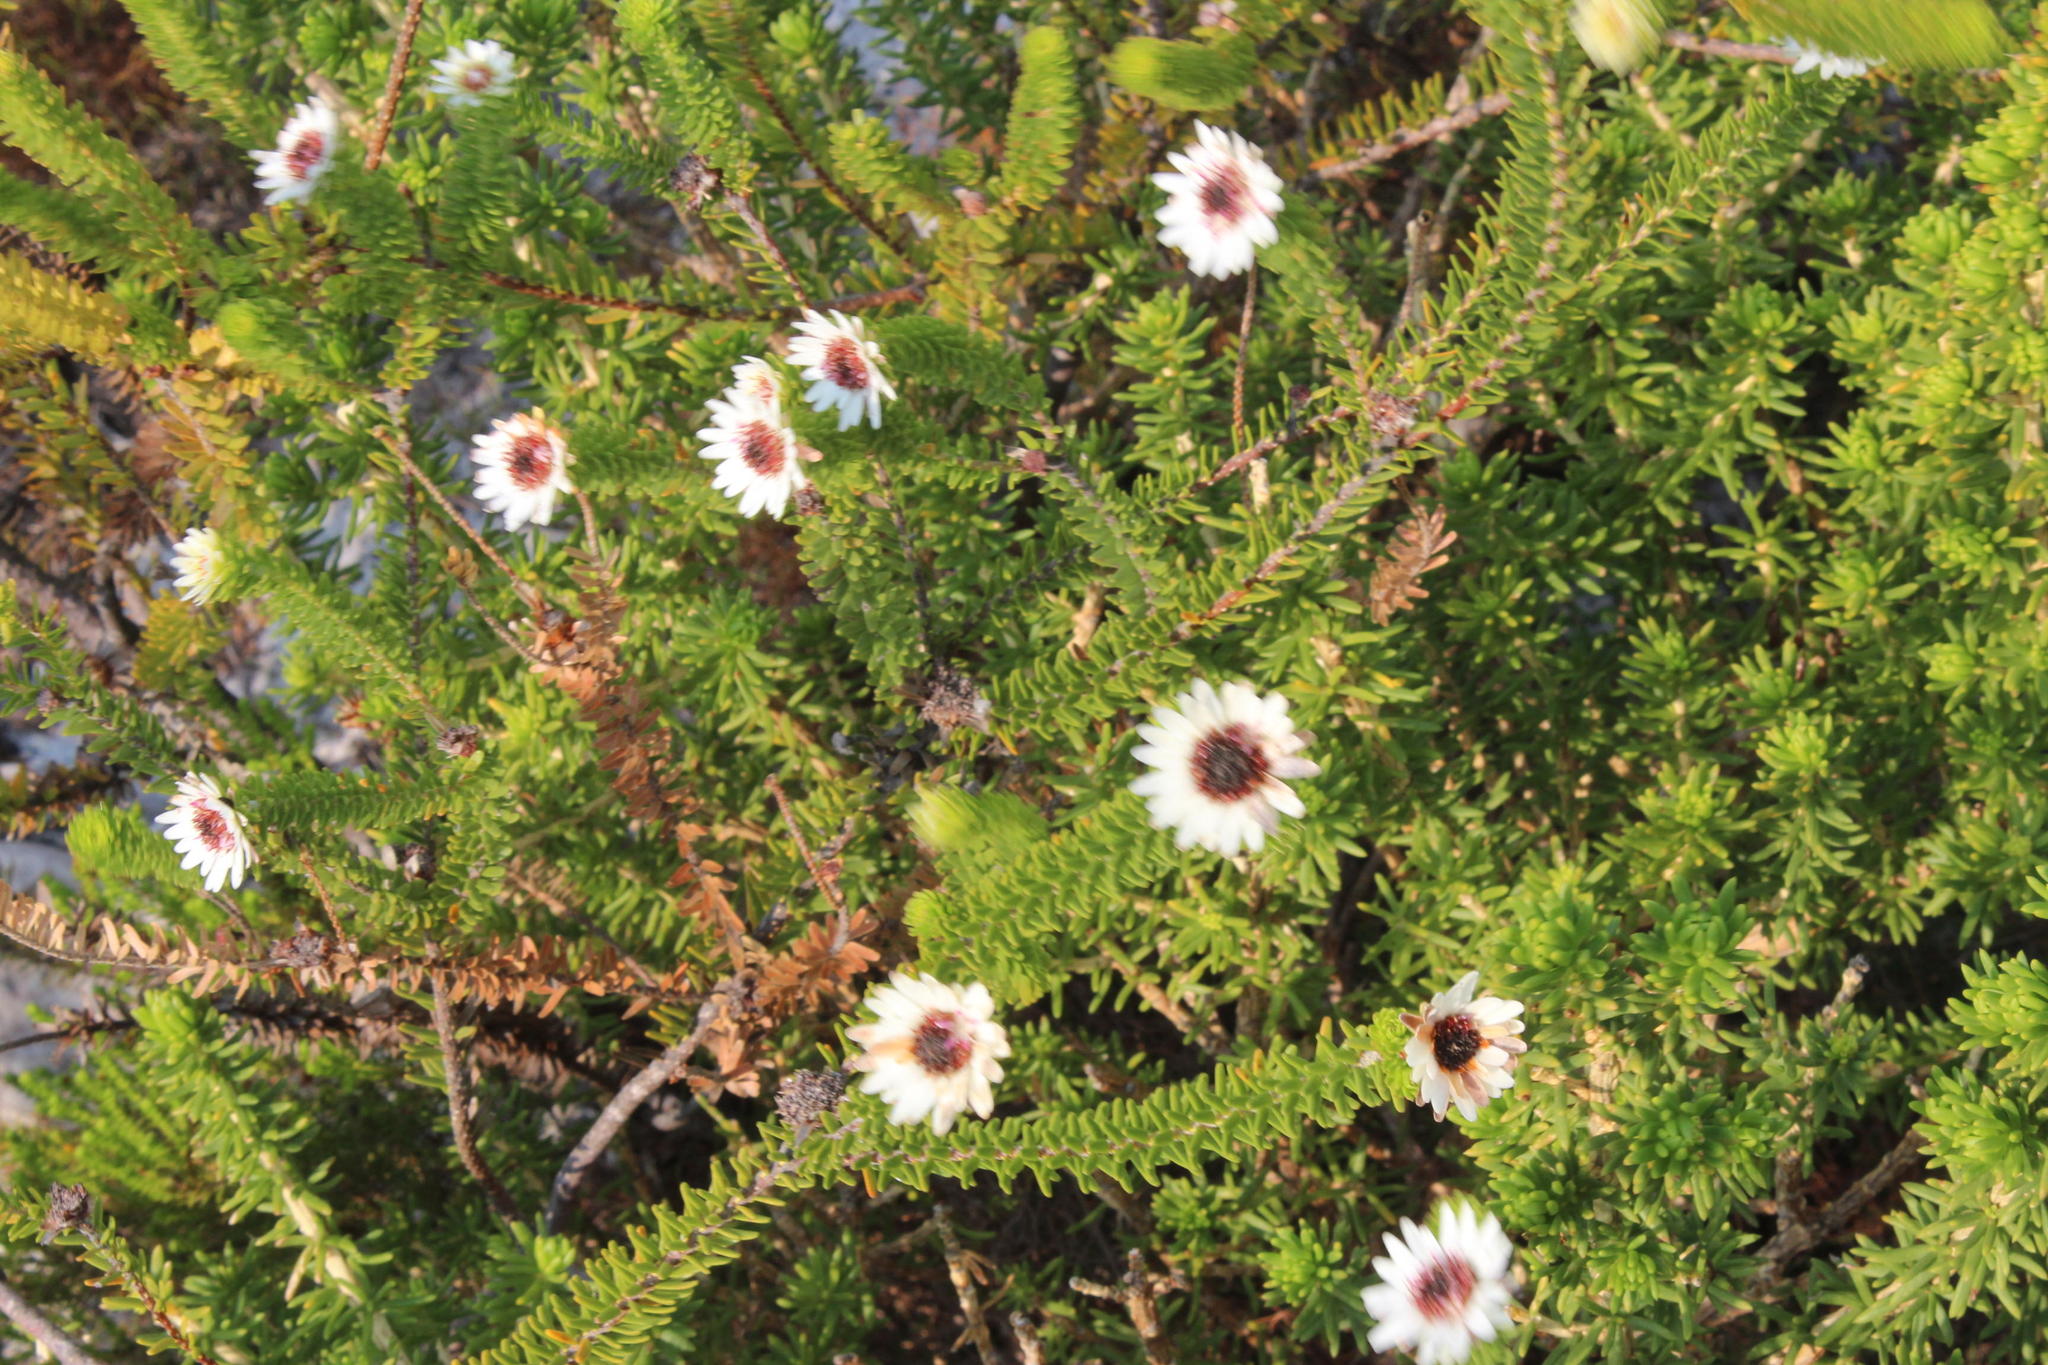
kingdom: Plantae
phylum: Tracheophyta
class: Magnoliopsida
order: Bruniales
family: Bruniaceae
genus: Staavia
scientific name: Staavia dodii
